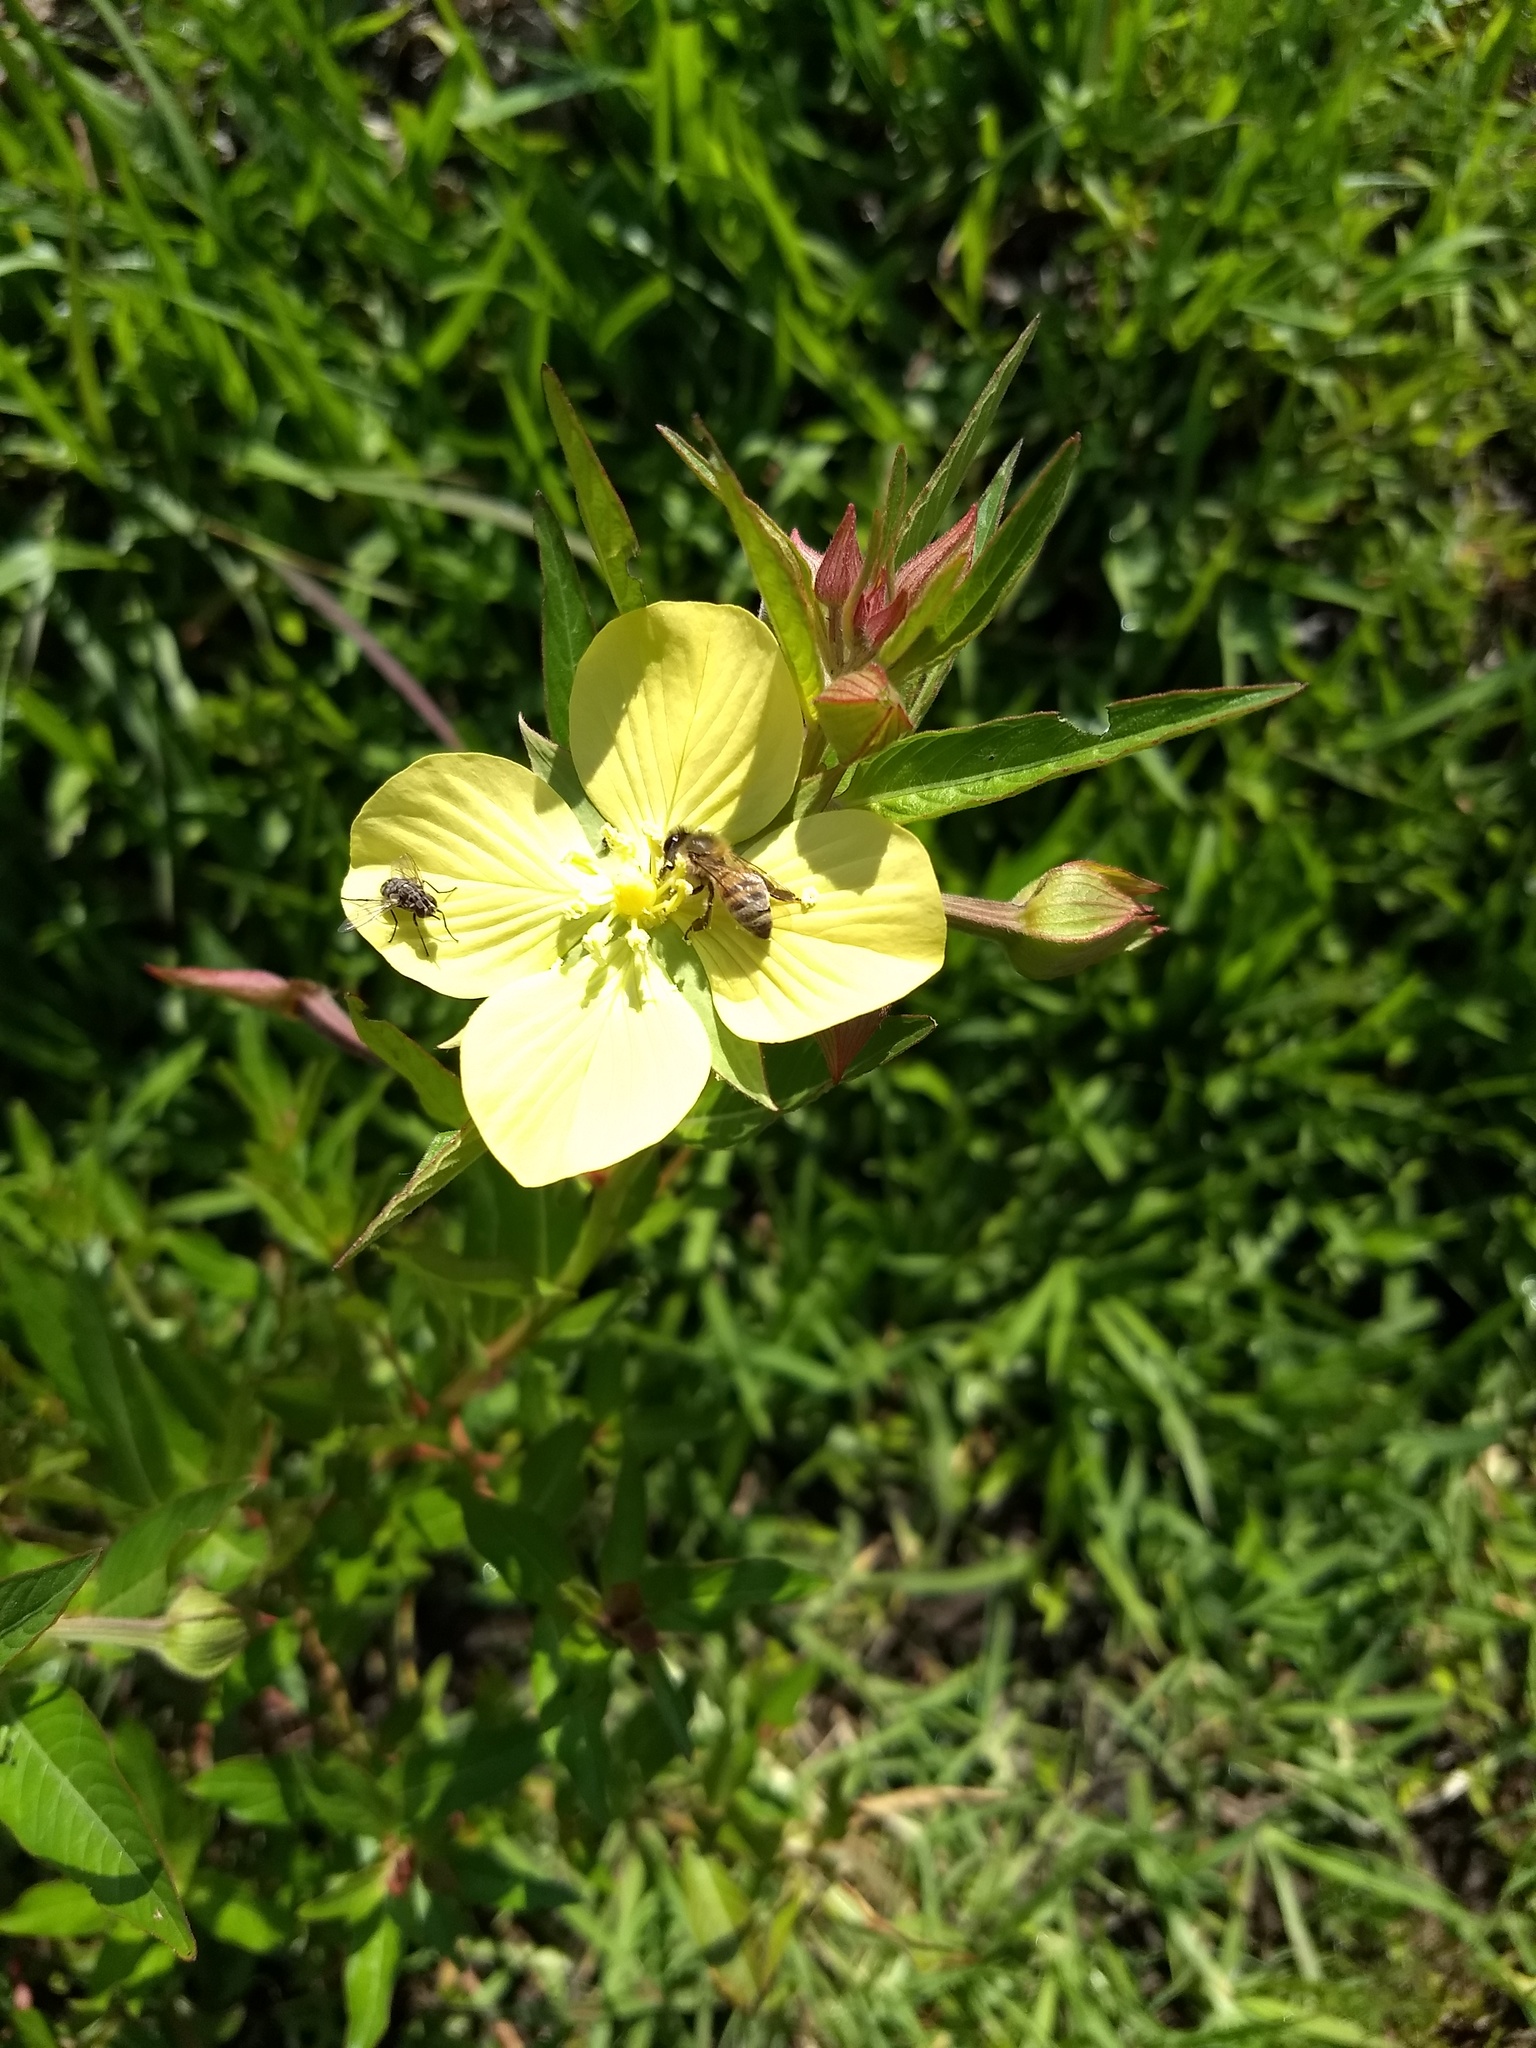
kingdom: Animalia
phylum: Arthropoda
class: Insecta
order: Hymenoptera
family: Apidae
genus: Apis
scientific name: Apis mellifera
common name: Honey bee
